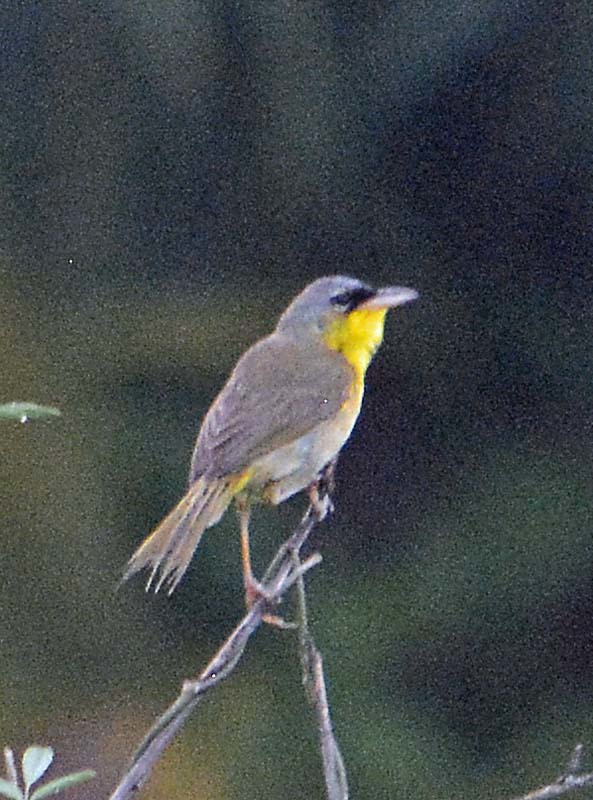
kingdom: Animalia
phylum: Chordata
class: Aves
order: Passeriformes
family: Parulidae
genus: Geothlypis
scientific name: Geothlypis poliocephala
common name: Gray-crowned yellowthroat
